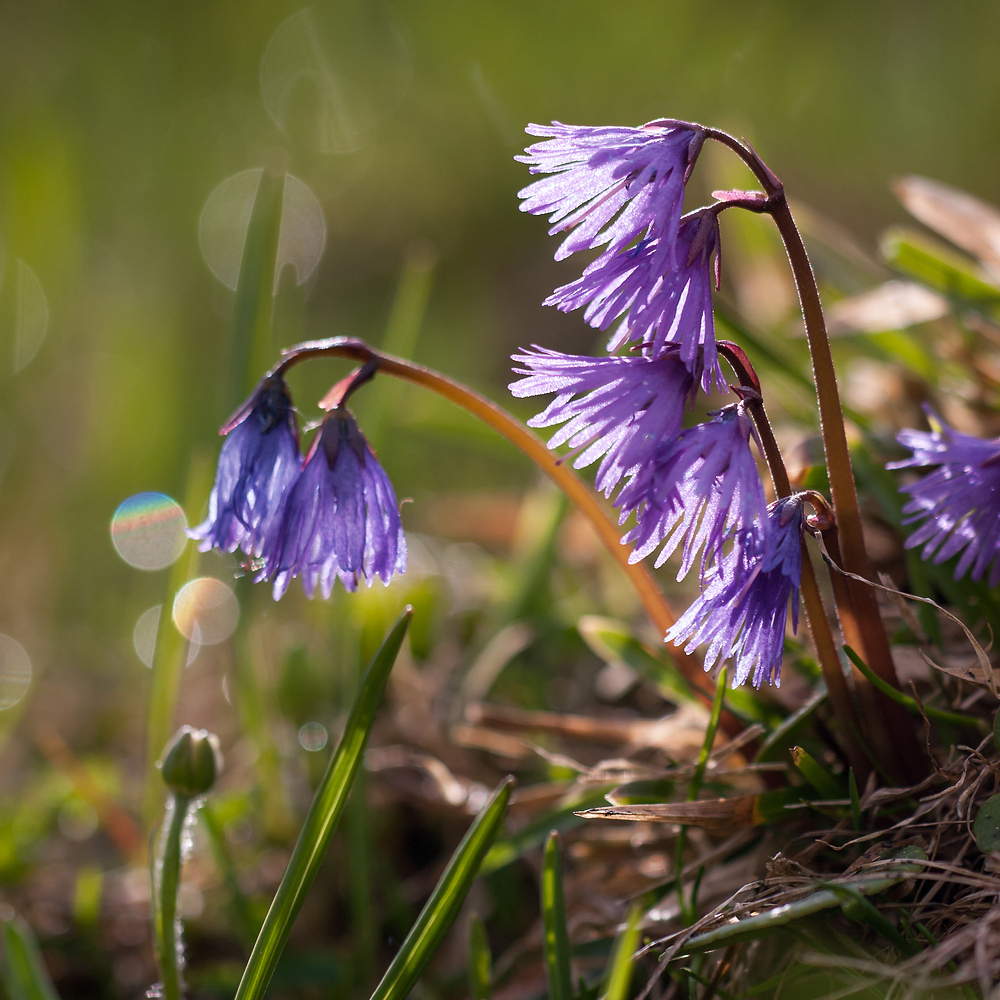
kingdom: Plantae
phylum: Tracheophyta
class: Magnoliopsida
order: Ericales
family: Primulaceae
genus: Soldanella
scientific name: Soldanella alpina
